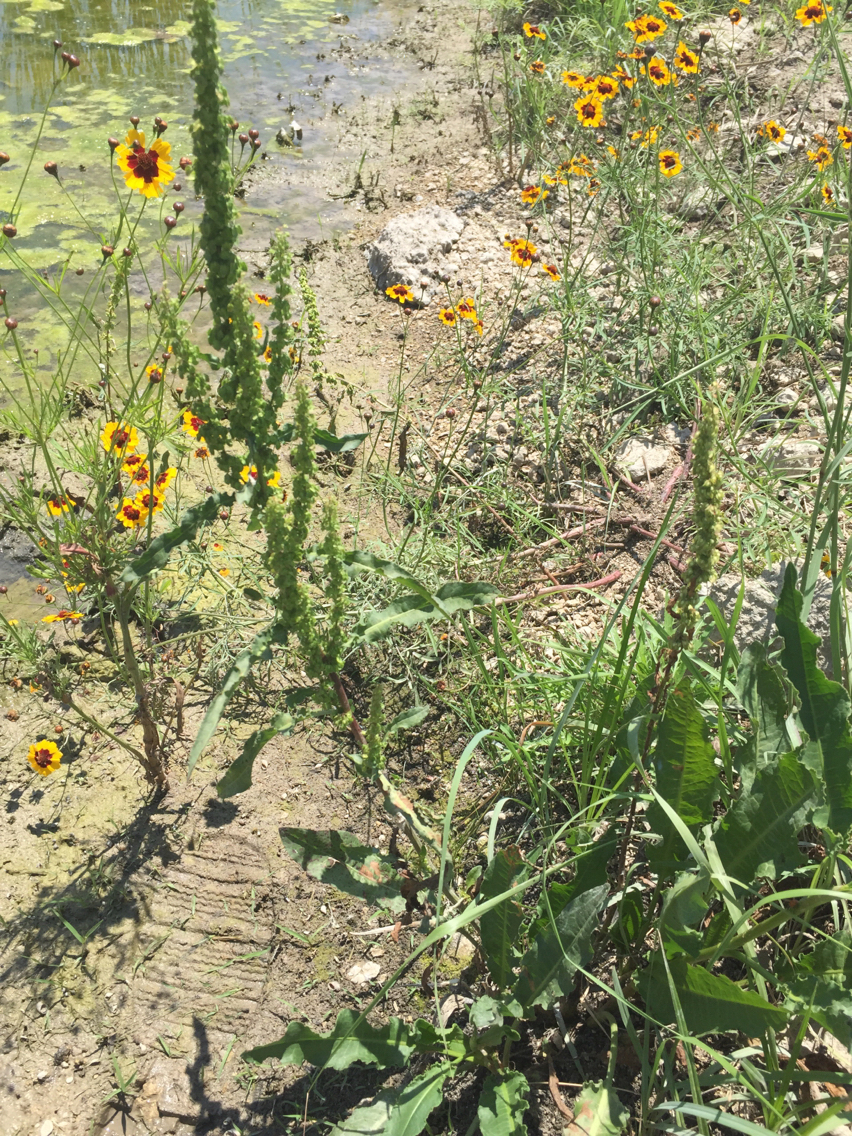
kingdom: Plantae
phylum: Tracheophyta
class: Magnoliopsida
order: Caryophyllales
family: Polygonaceae
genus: Rumex
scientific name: Rumex crispus
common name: Curled dock
